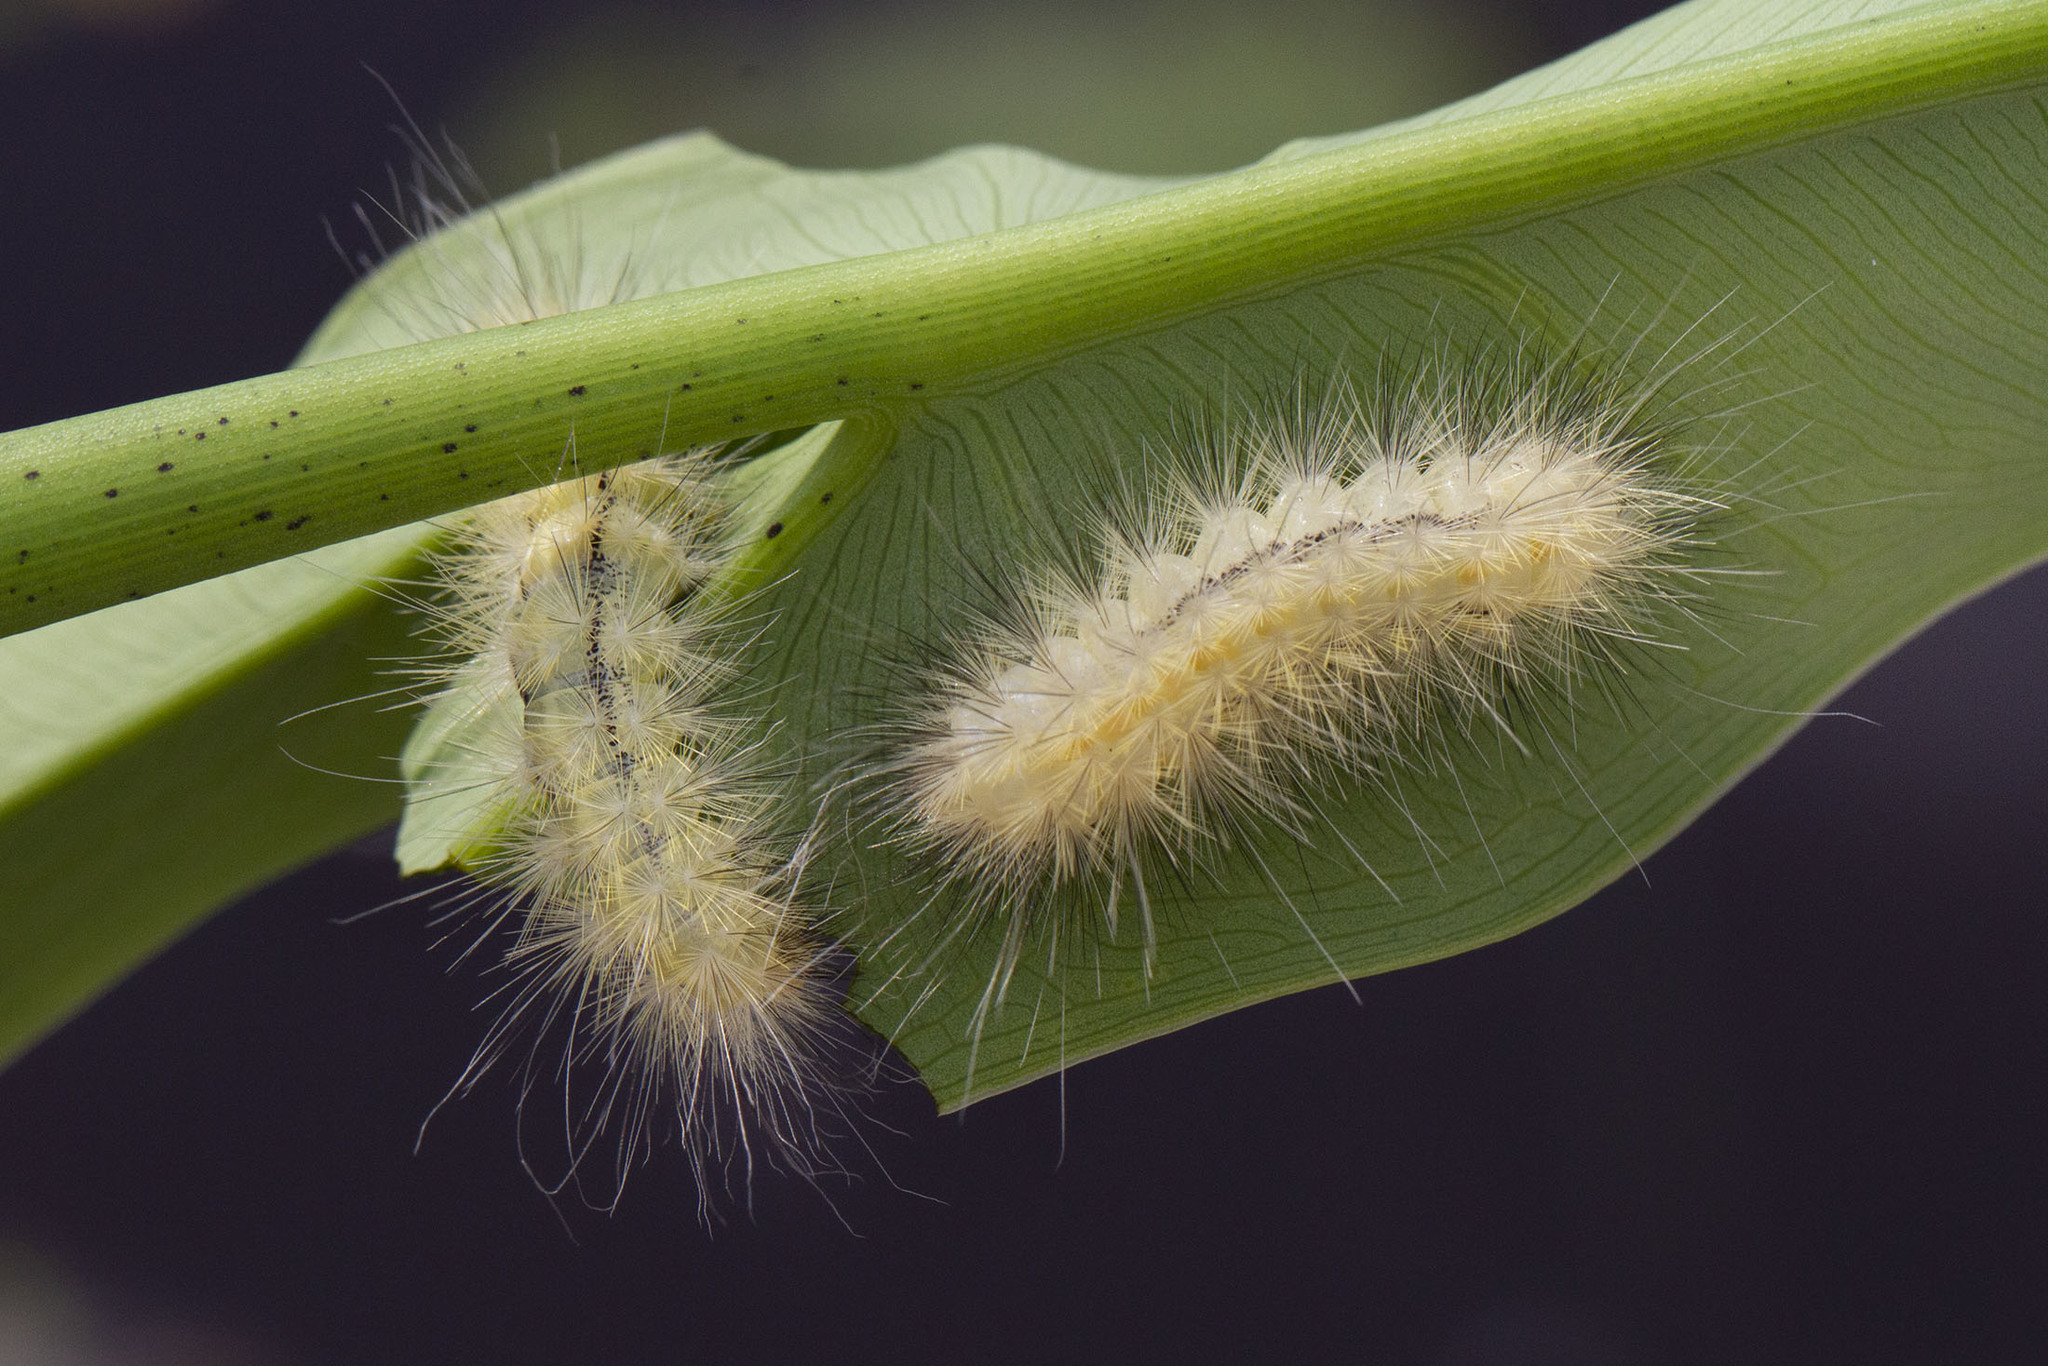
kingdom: Animalia
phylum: Arthropoda
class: Insecta
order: Lepidoptera
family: Erebidae
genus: Spilosoma
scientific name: Spilosoma virginica
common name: Virginia tiger moth
